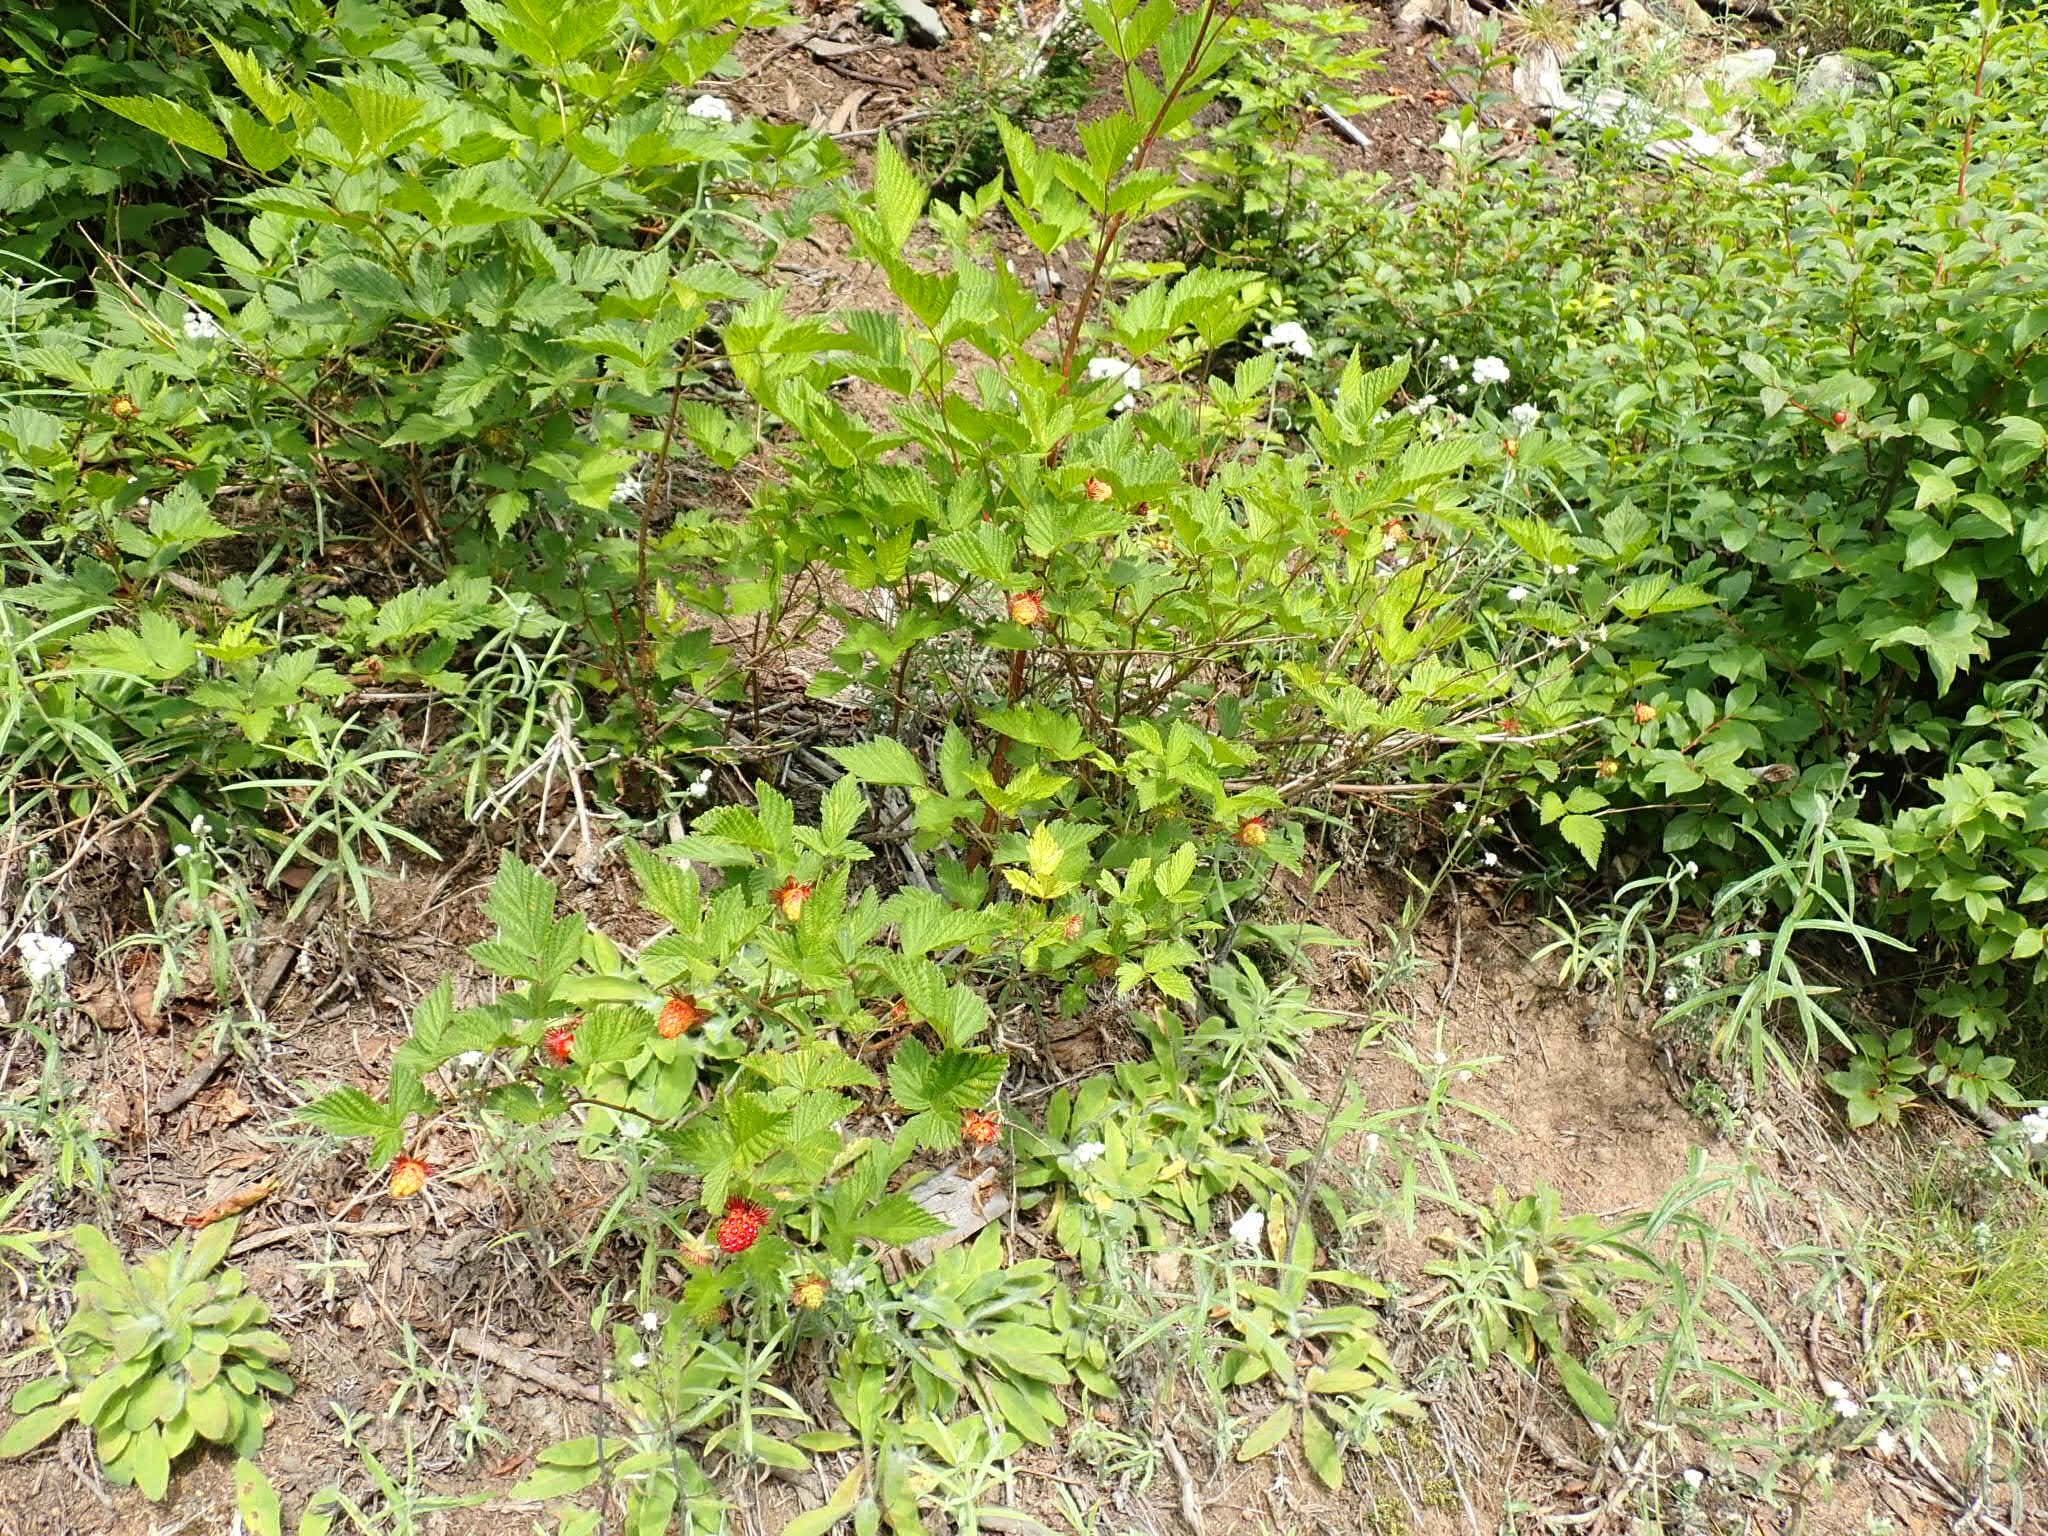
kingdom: Plantae
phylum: Tracheophyta
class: Magnoliopsida
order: Rosales
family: Rosaceae
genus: Rubus
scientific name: Rubus spectabilis
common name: Salmonberry
